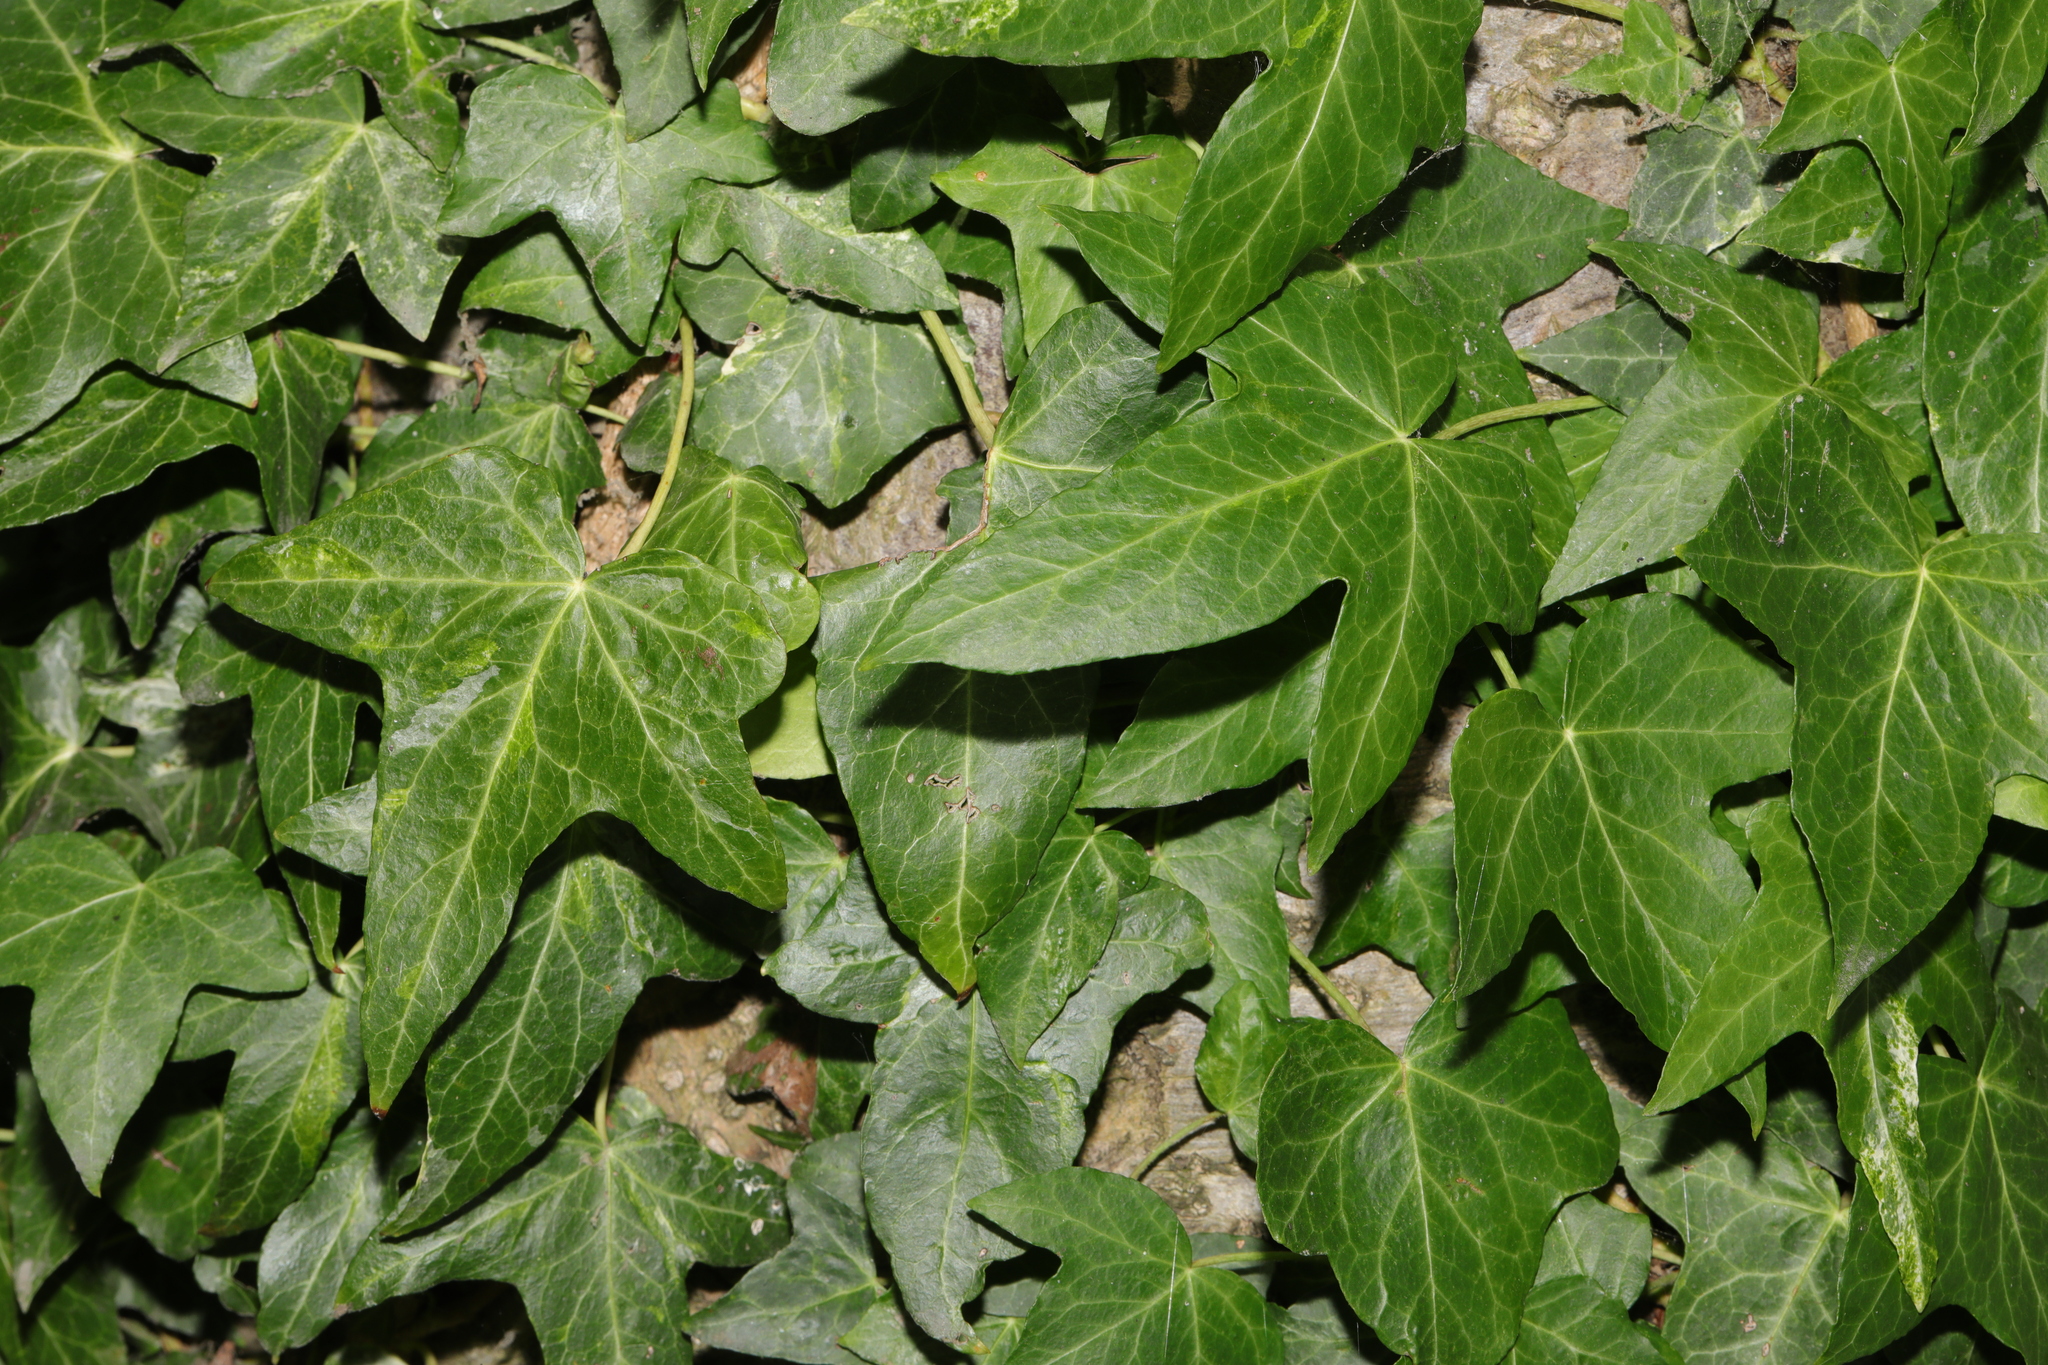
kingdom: Plantae
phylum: Tracheophyta
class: Magnoliopsida
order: Apiales
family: Araliaceae
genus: Hedera
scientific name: Hedera helix
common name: Ivy
